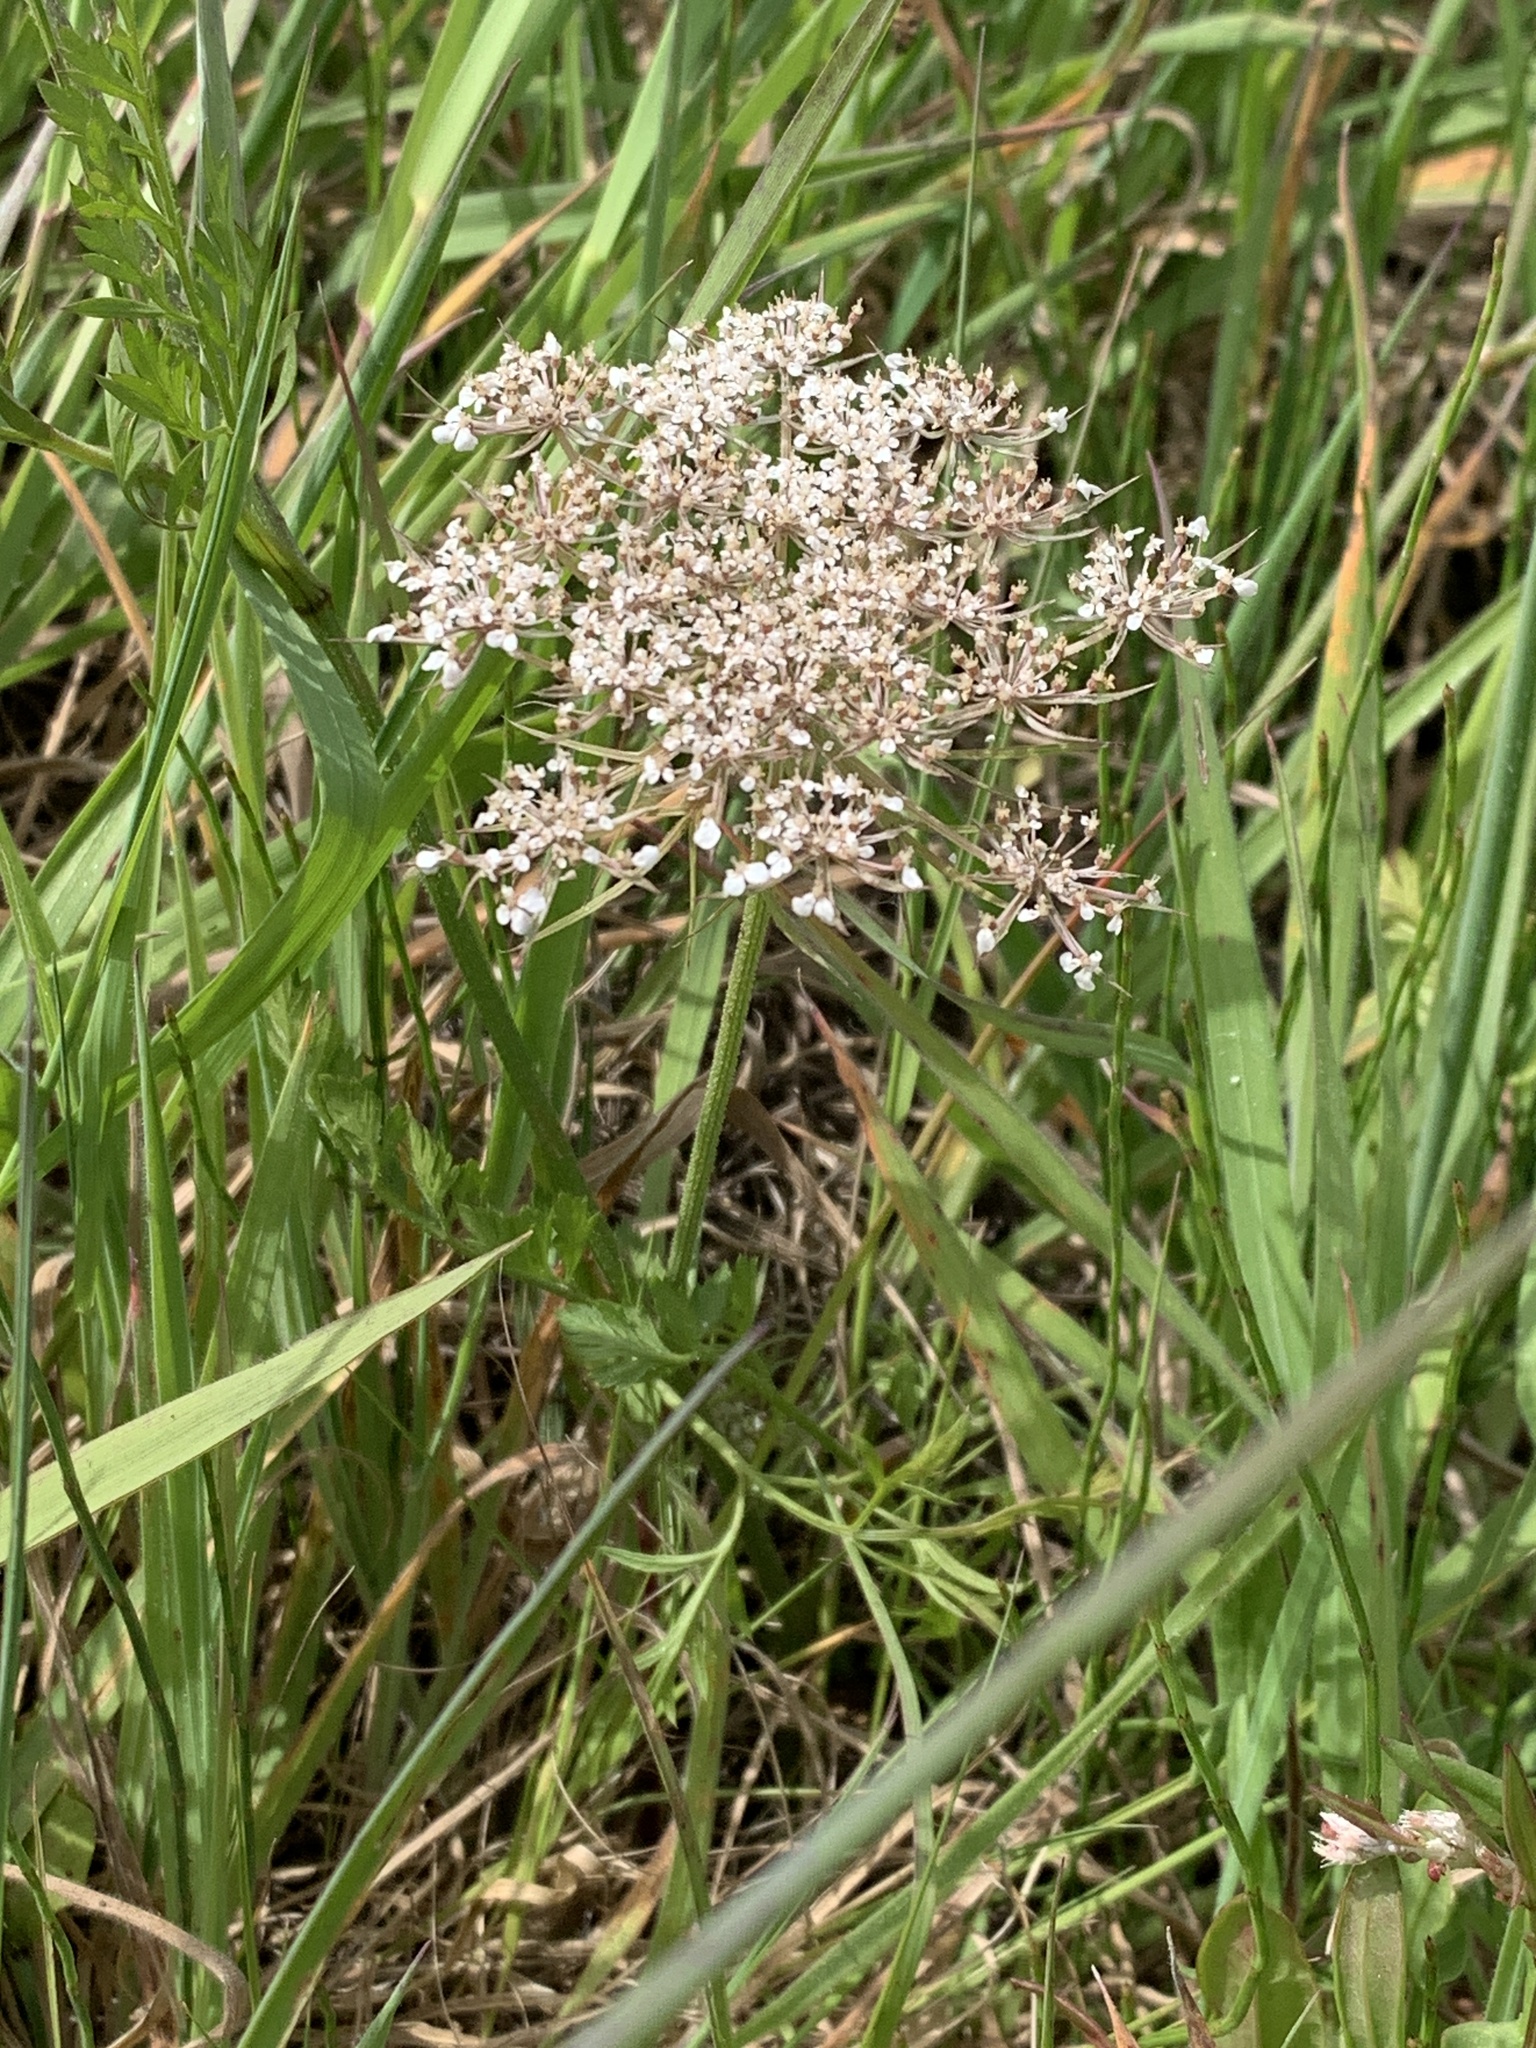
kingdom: Plantae
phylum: Tracheophyta
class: Magnoliopsida
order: Apiales
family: Apiaceae
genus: Daucus
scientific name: Daucus carota
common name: Wild carrot
